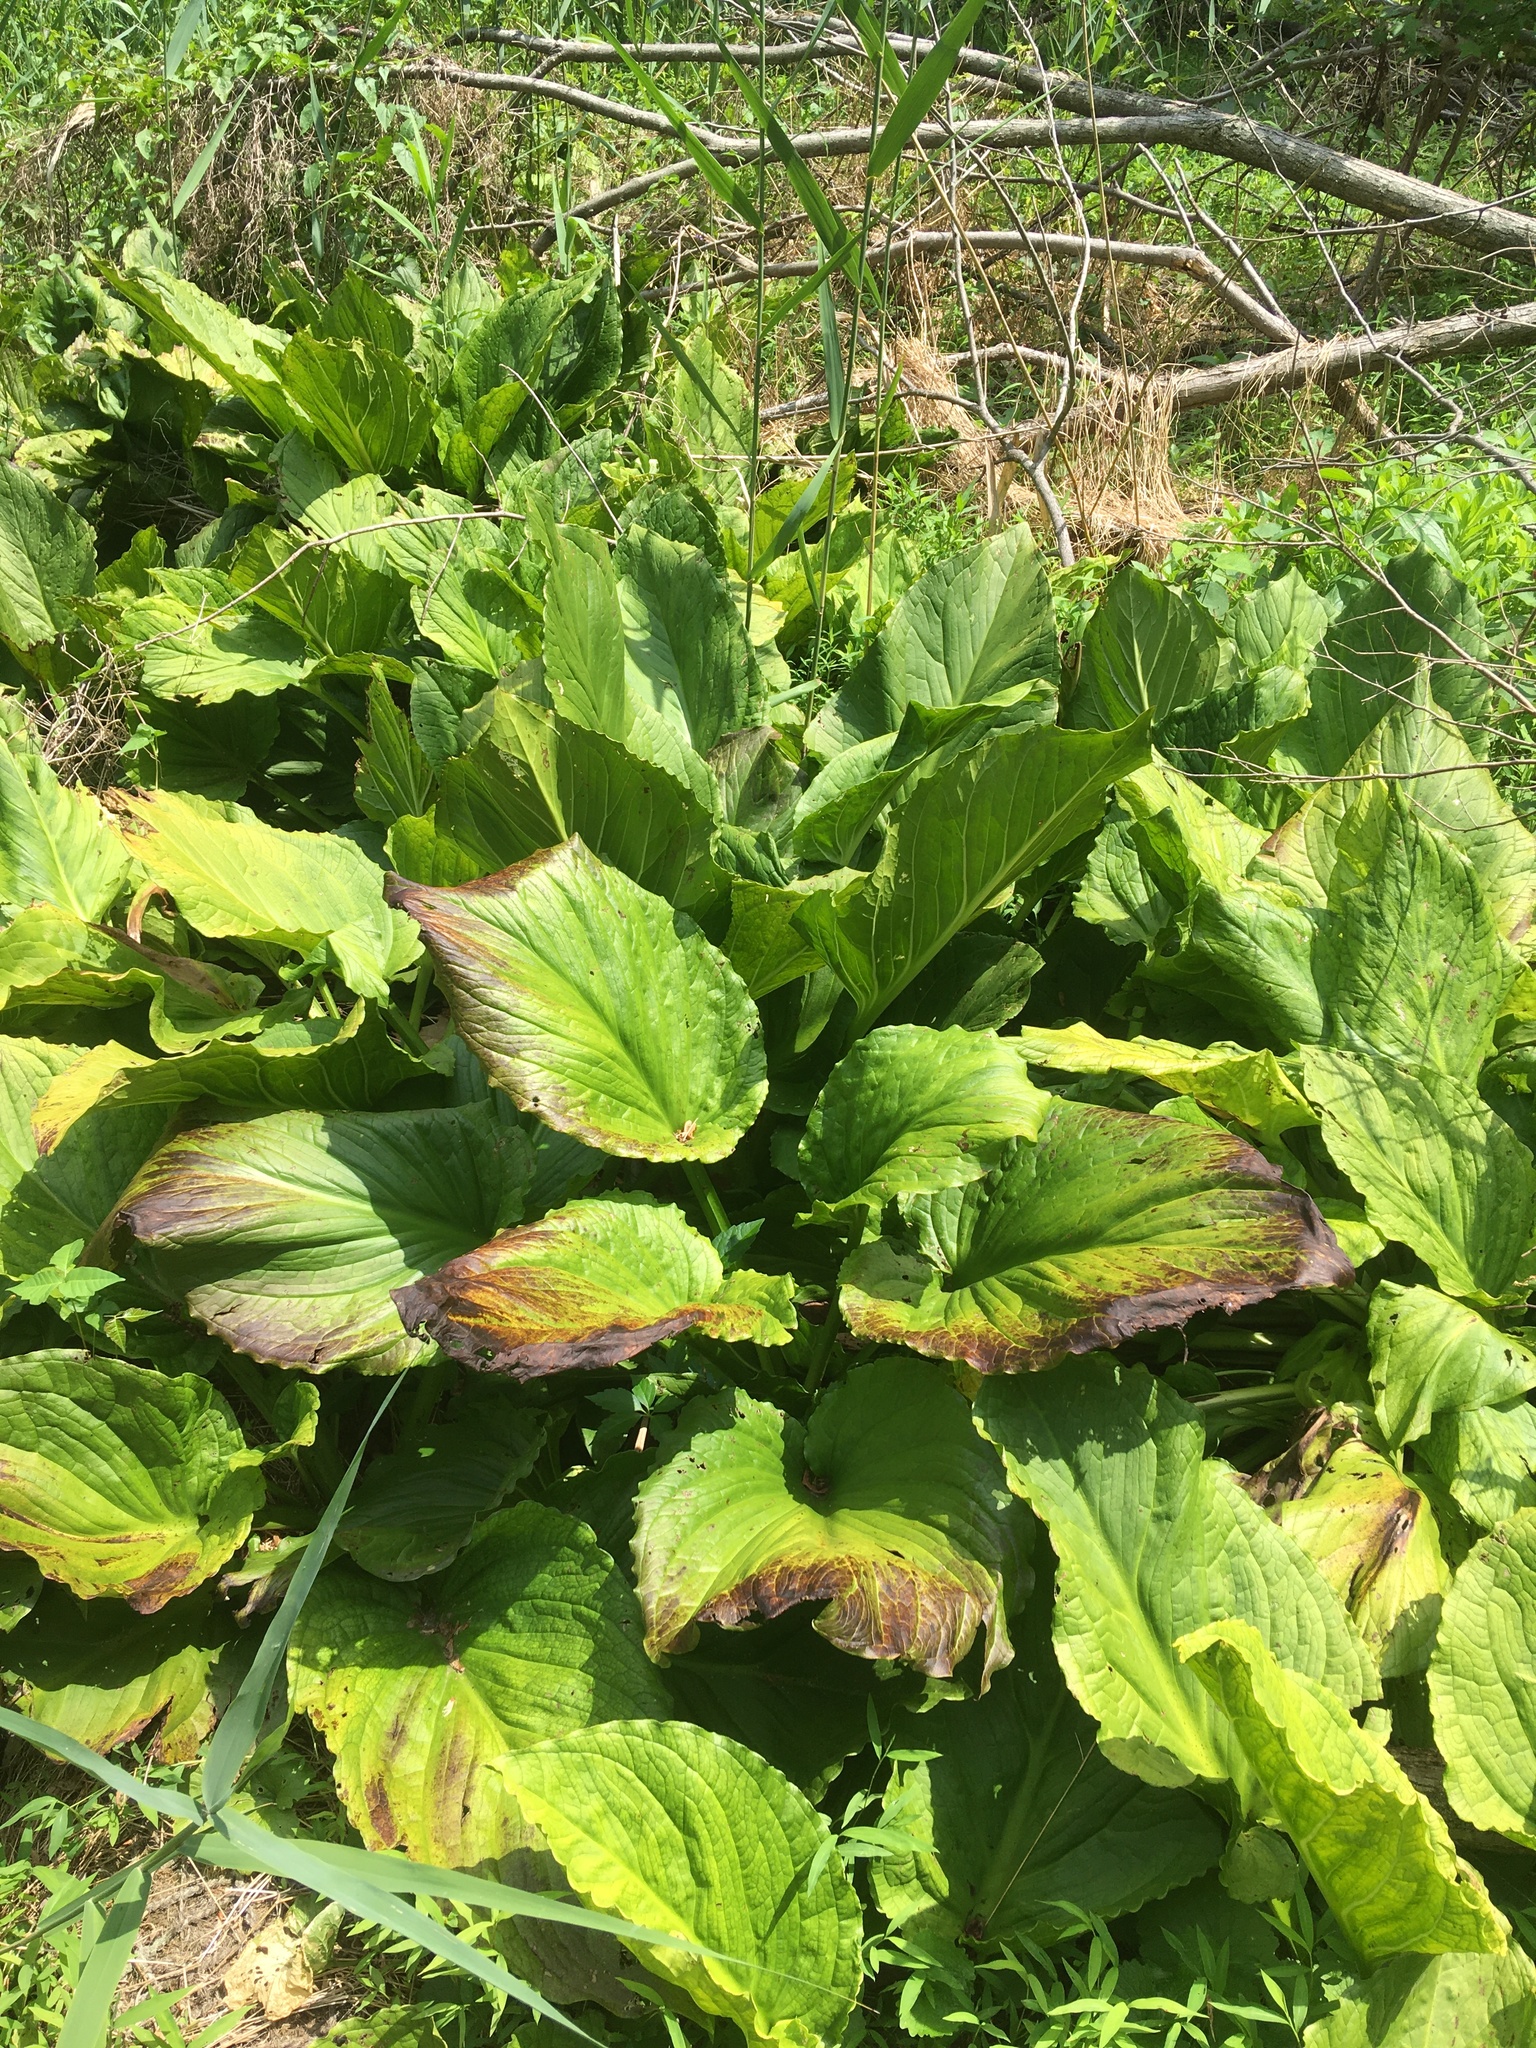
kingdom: Plantae
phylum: Tracheophyta
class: Liliopsida
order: Alismatales
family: Araceae
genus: Symplocarpus
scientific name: Symplocarpus foetidus
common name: Eastern skunk cabbage
